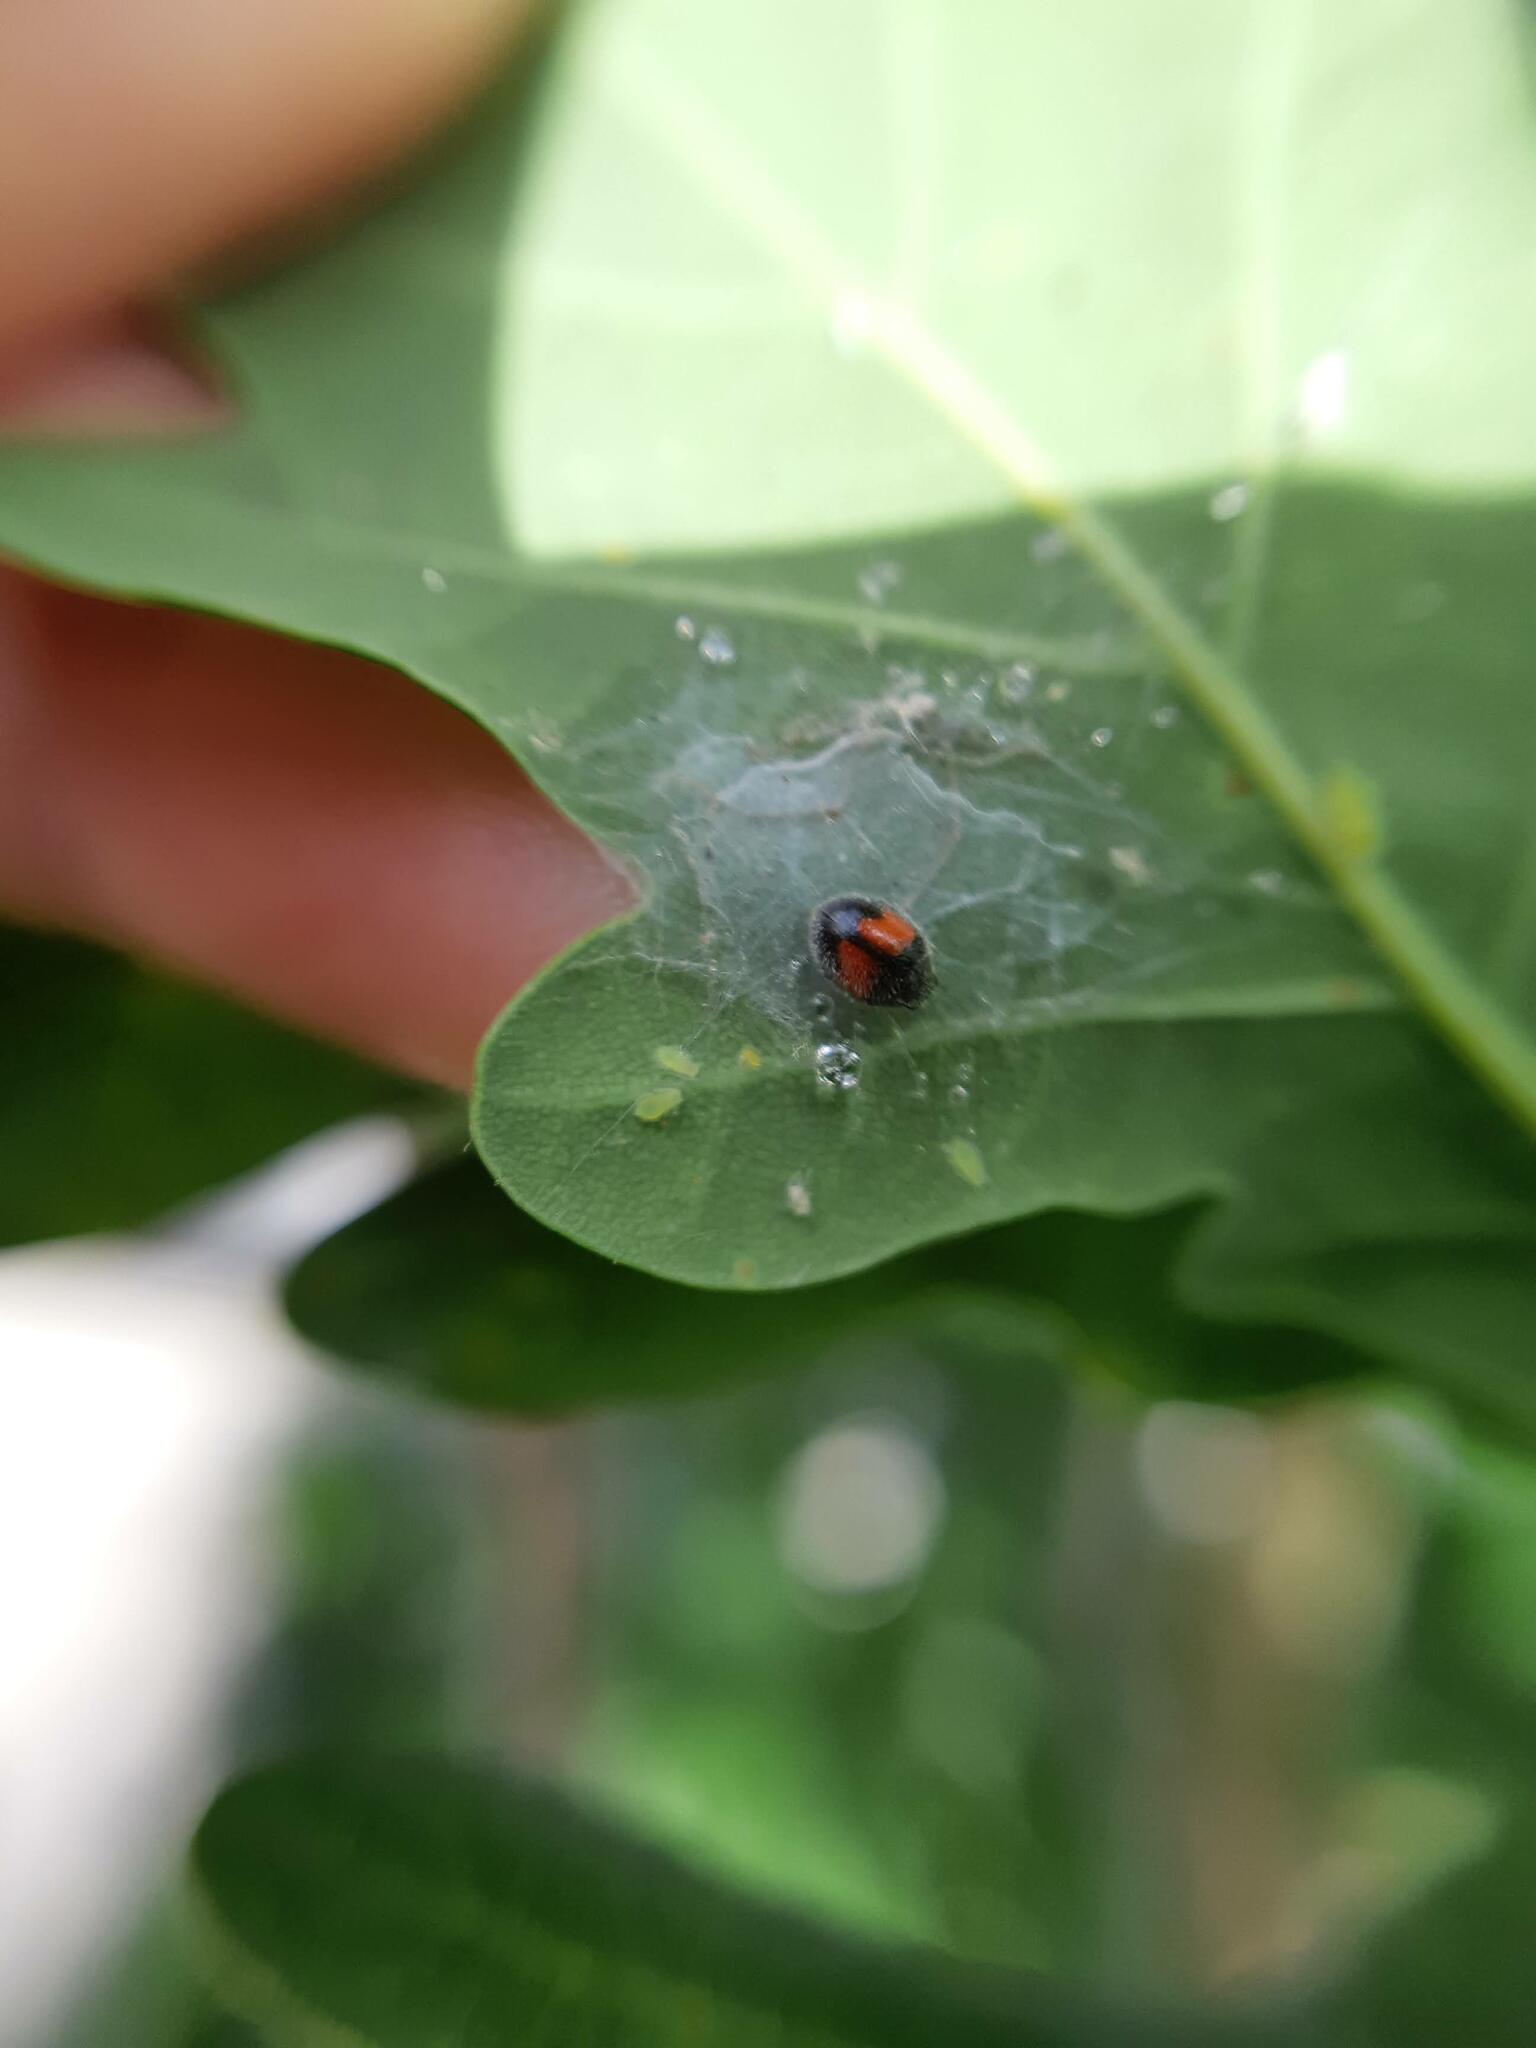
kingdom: Animalia
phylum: Arthropoda
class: Insecta
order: Coleoptera
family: Coccinellidae
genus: Scymnus
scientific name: Scymnus notescens
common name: Minute two-spotted ladybird beetle
